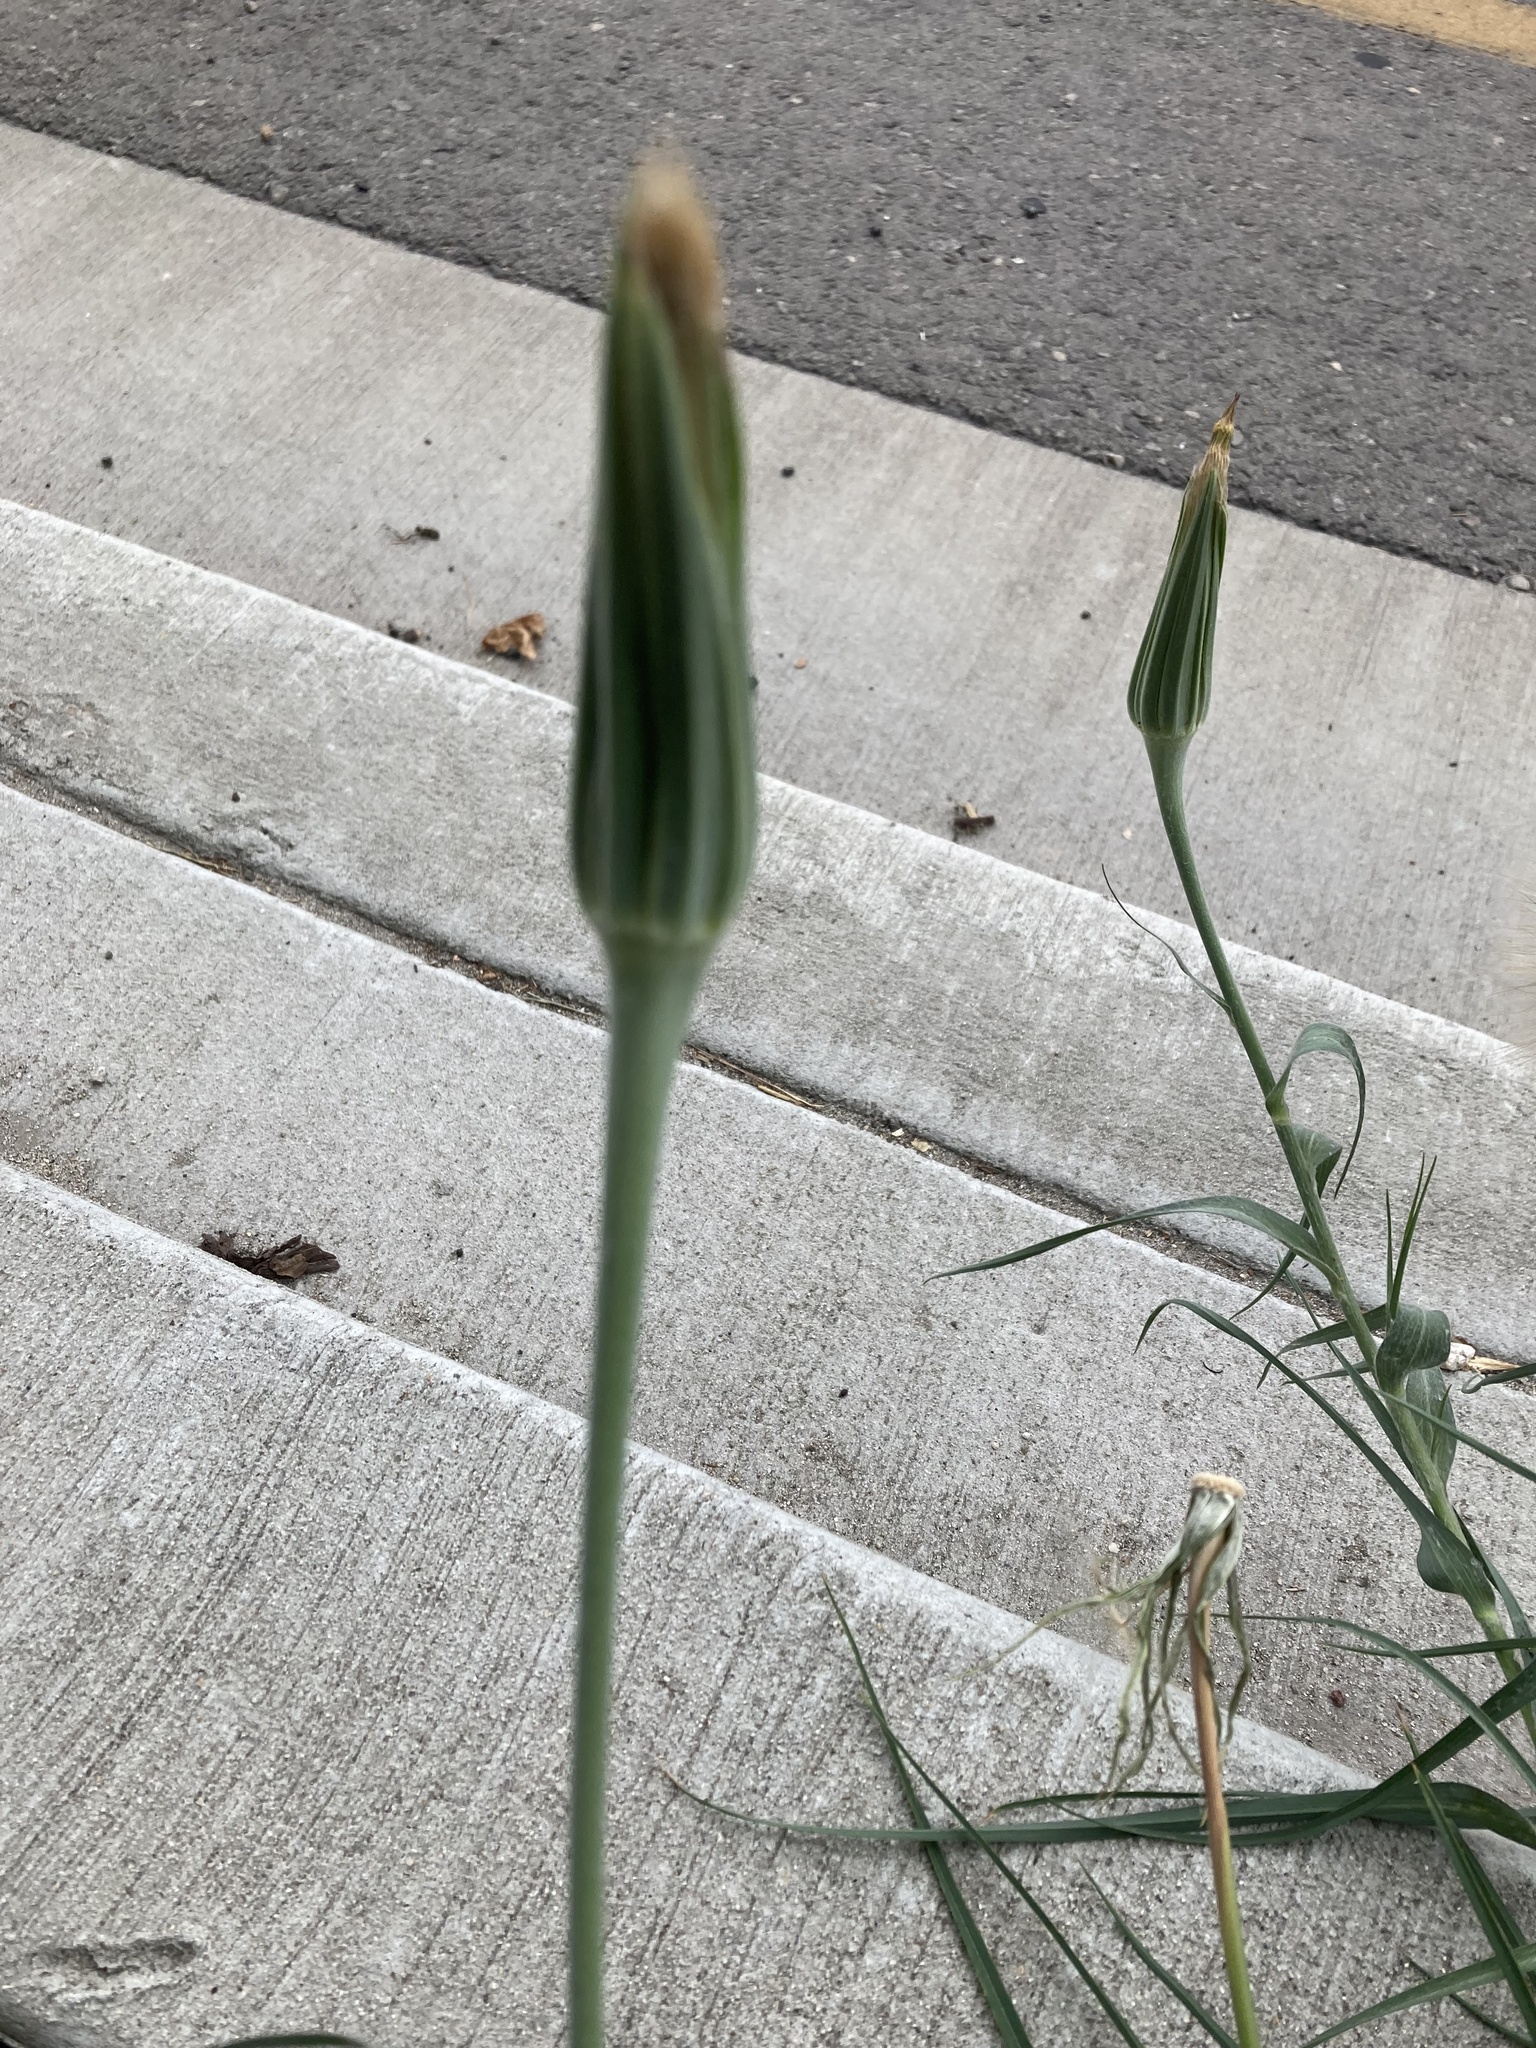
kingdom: Plantae
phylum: Tracheophyta
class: Magnoliopsida
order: Asterales
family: Asteraceae
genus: Tragopogon
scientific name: Tragopogon dubius
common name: Yellow salsify
